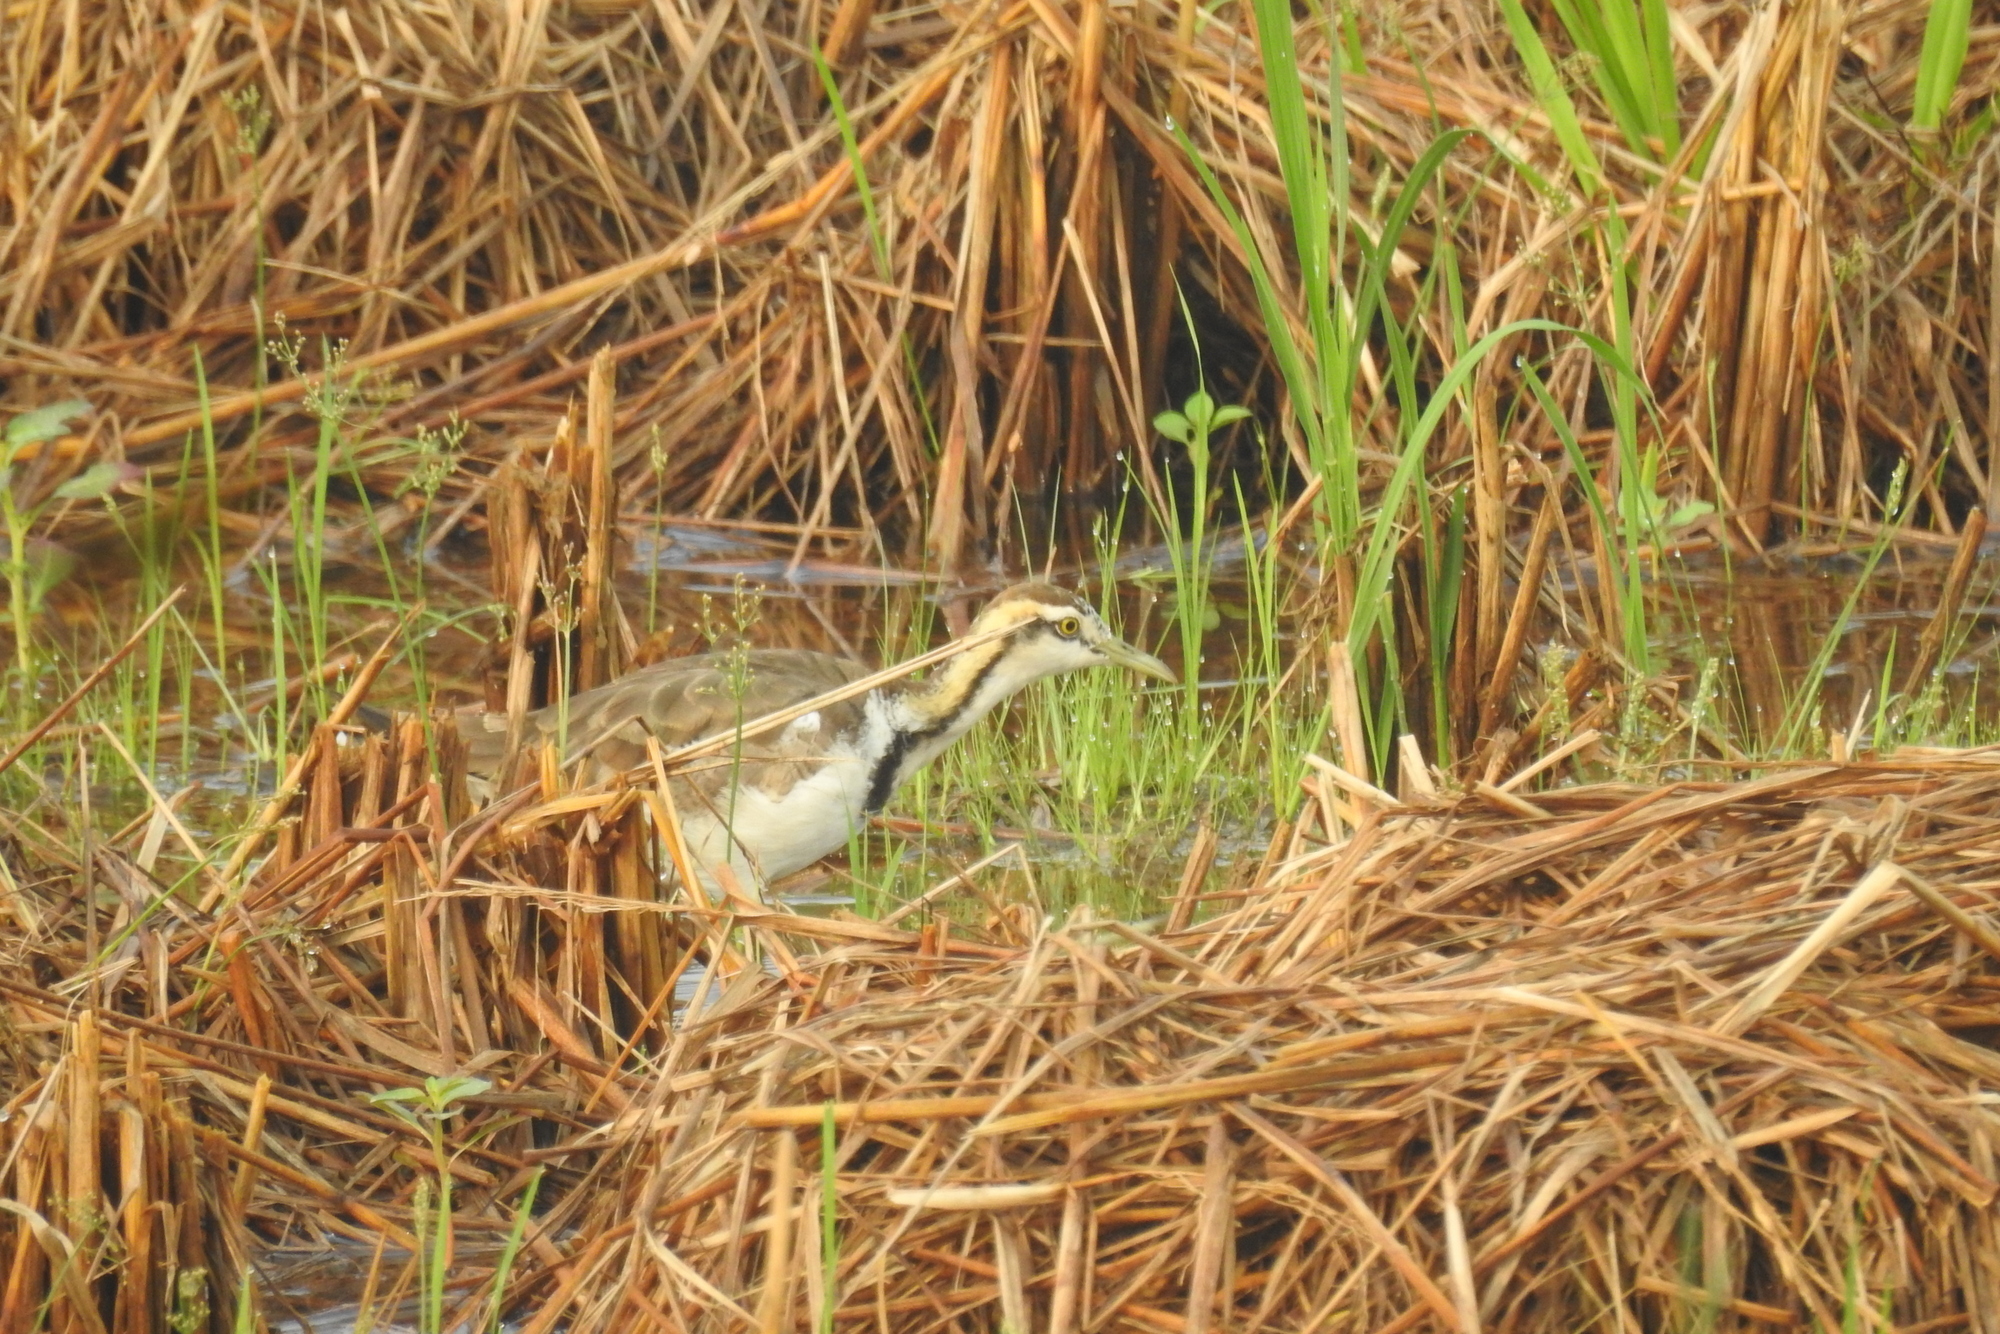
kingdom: Animalia
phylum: Chordata
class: Aves
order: Charadriiformes
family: Jacanidae
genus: Hydrophasianus
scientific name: Hydrophasianus chirurgus
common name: Pheasant-tailed jacana
